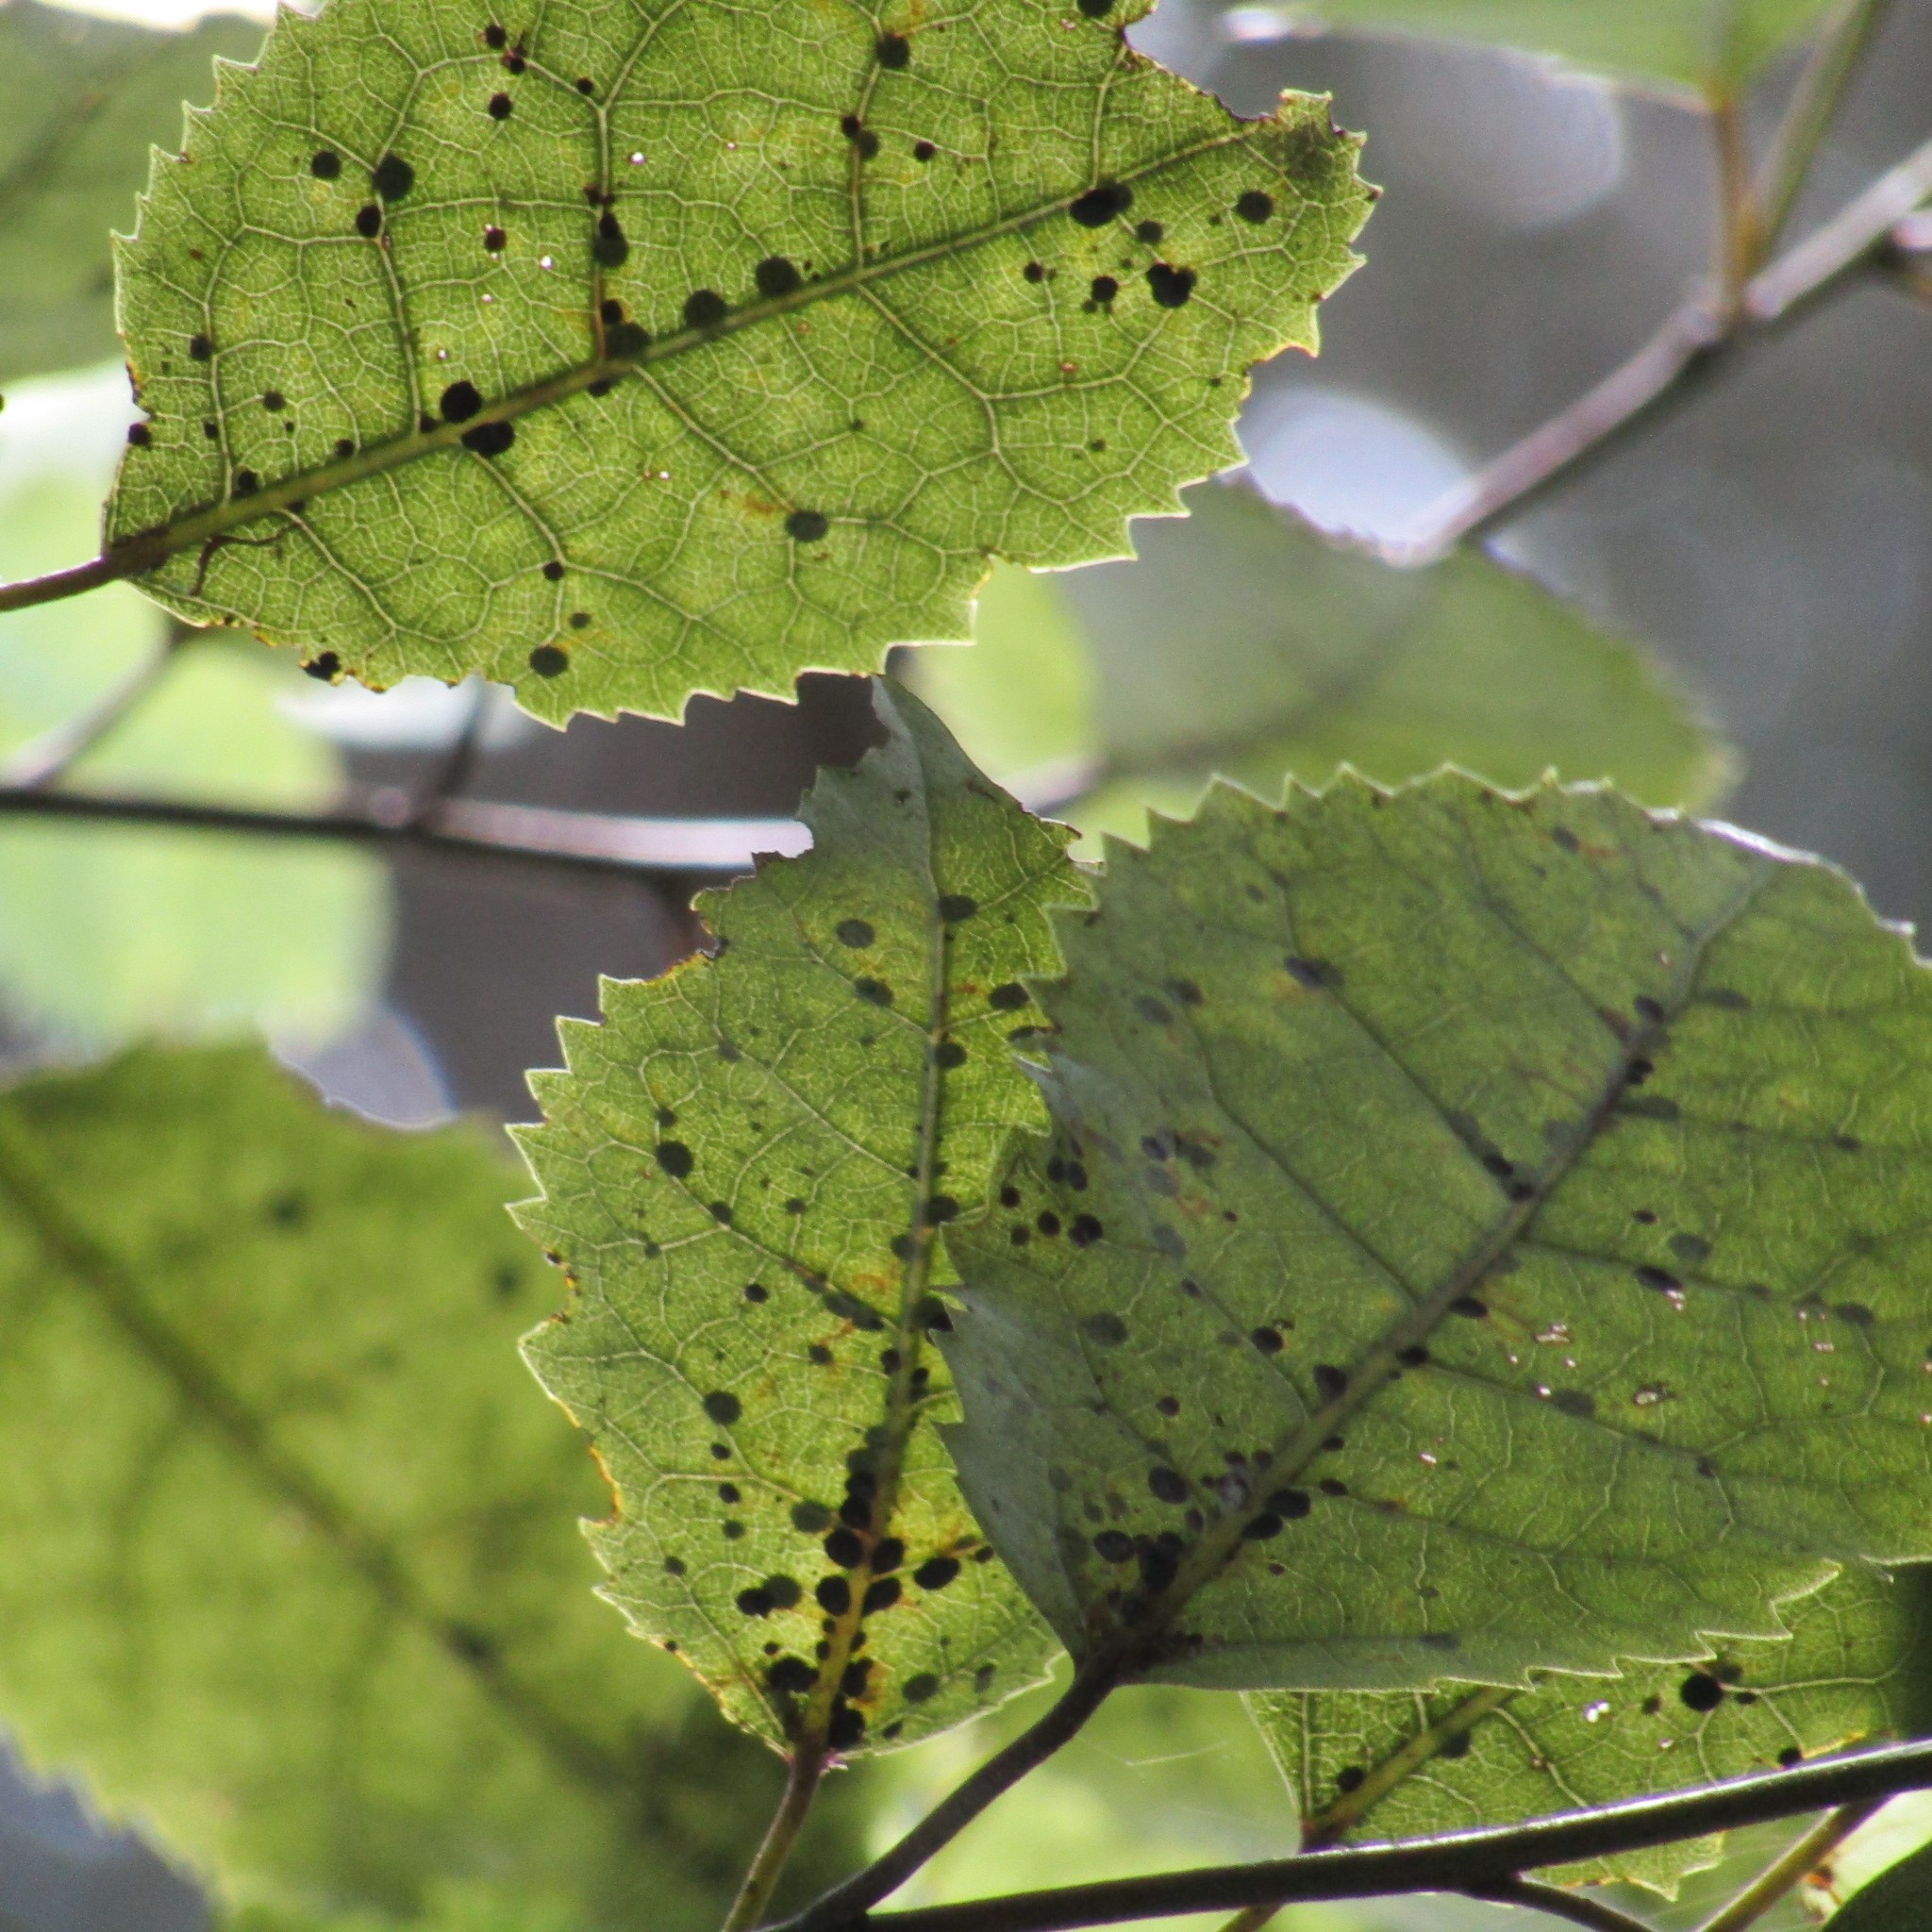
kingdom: Plantae
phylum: Tracheophyta
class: Magnoliopsida
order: Malvales
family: Malvaceae
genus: Hoheria
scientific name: Hoheria populnea
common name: Lacebark
